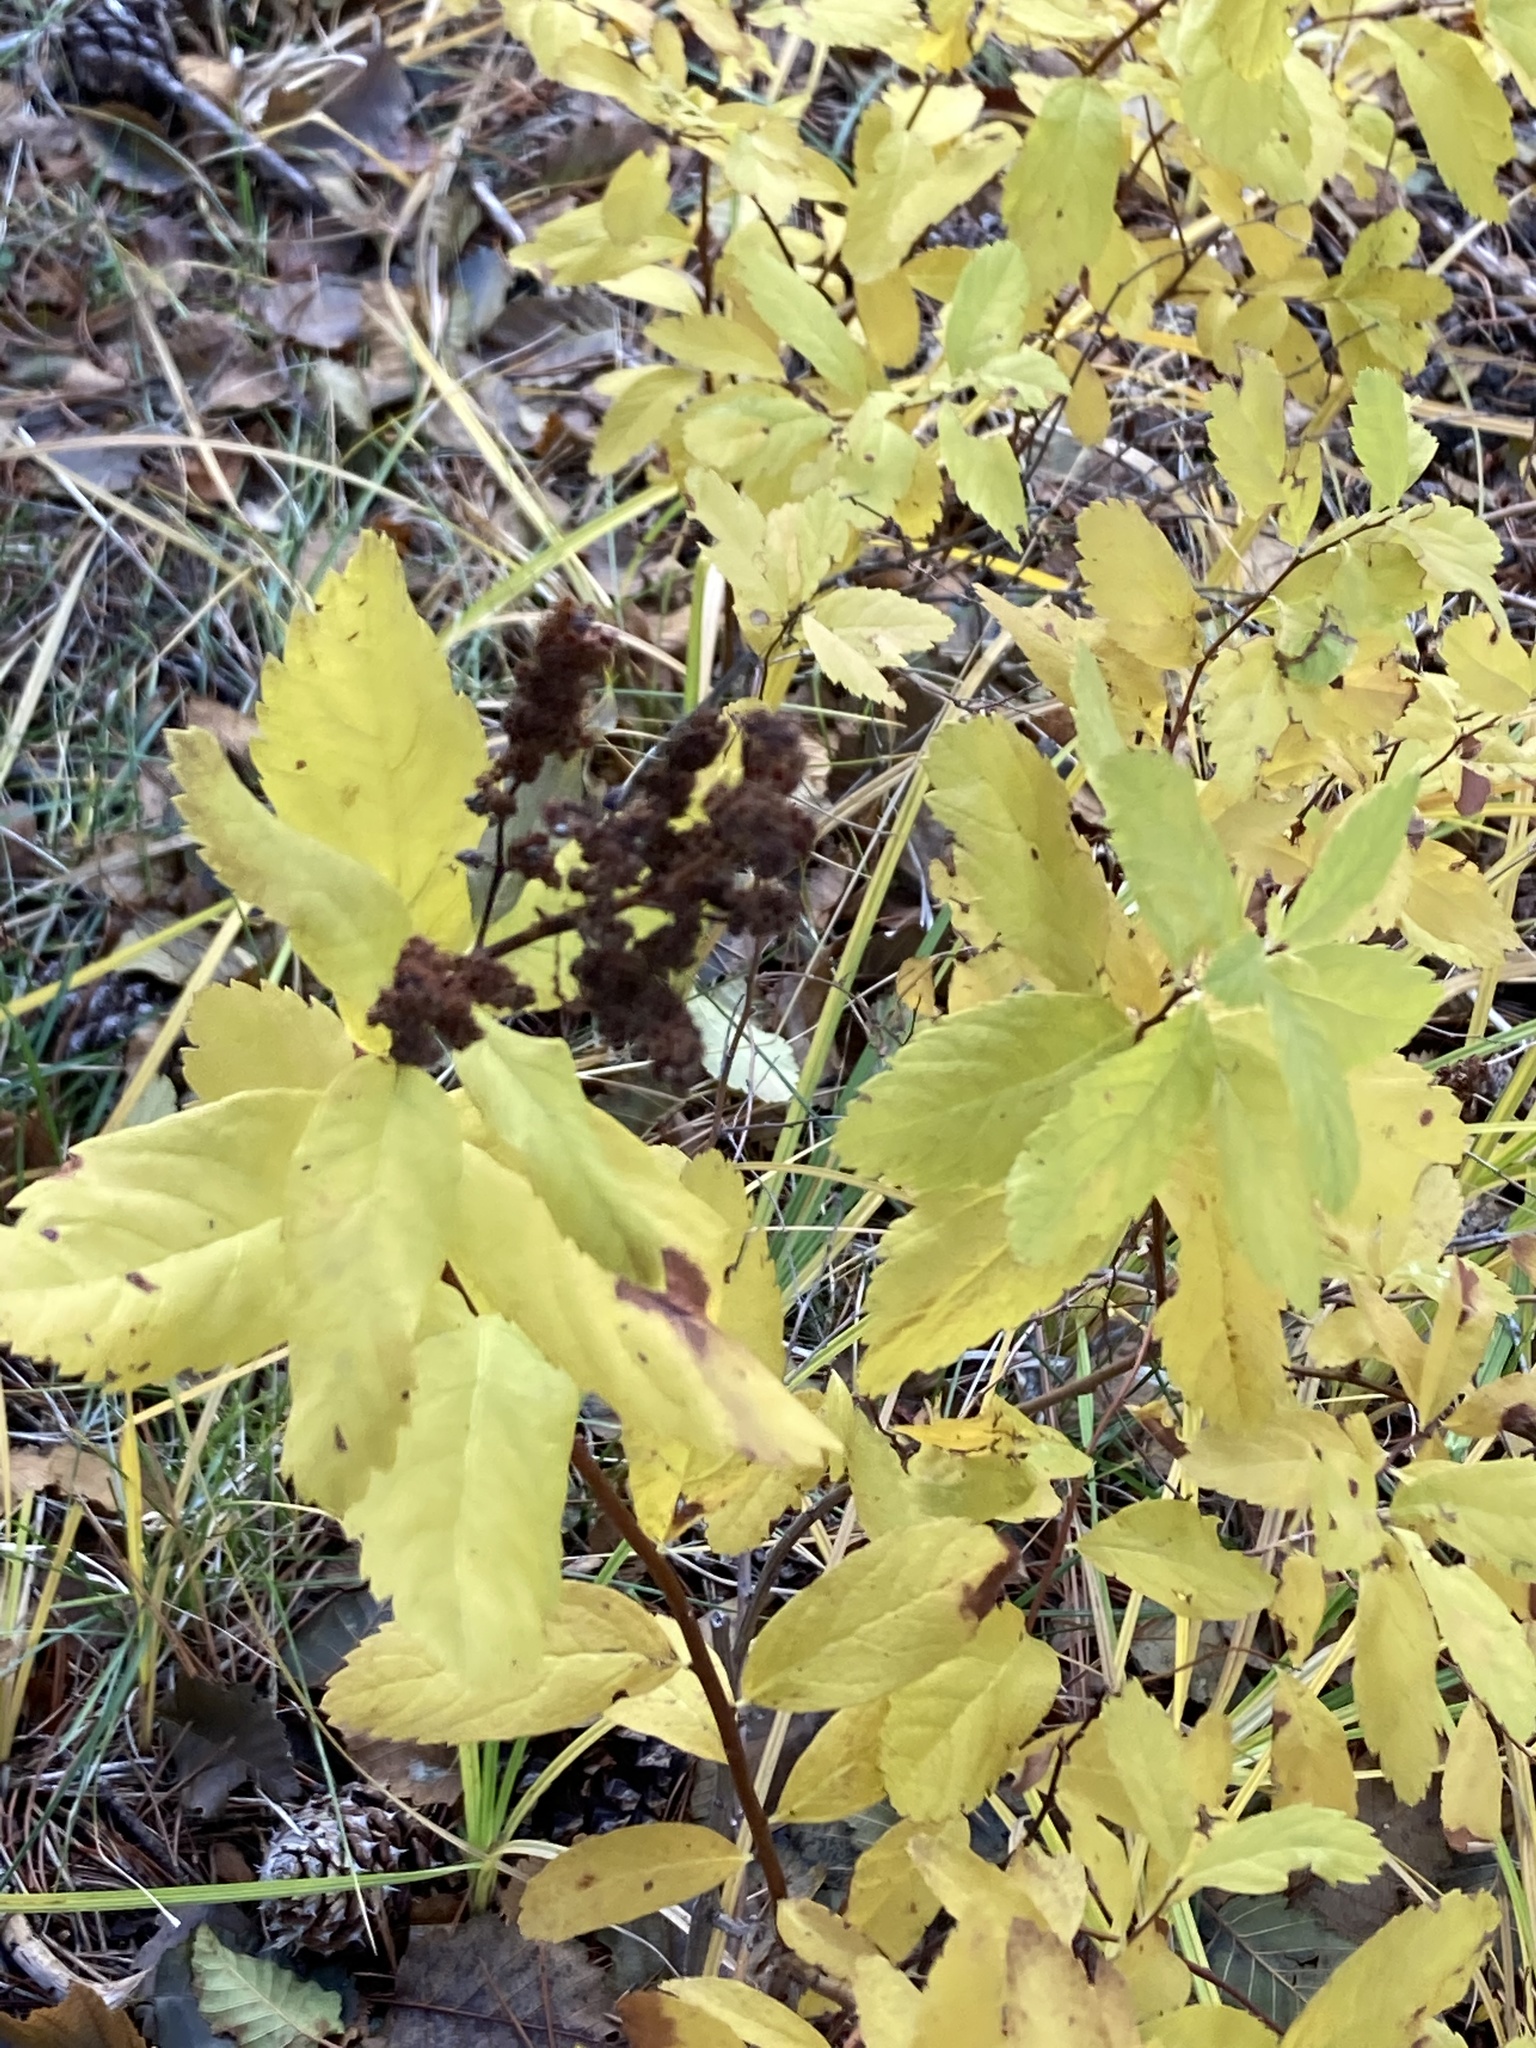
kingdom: Plantae
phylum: Tracheophyta
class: Magnoliopsida
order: Rosales
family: Rosaceae
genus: Spiraea
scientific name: Spiraea douglasii
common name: Steeplebush
